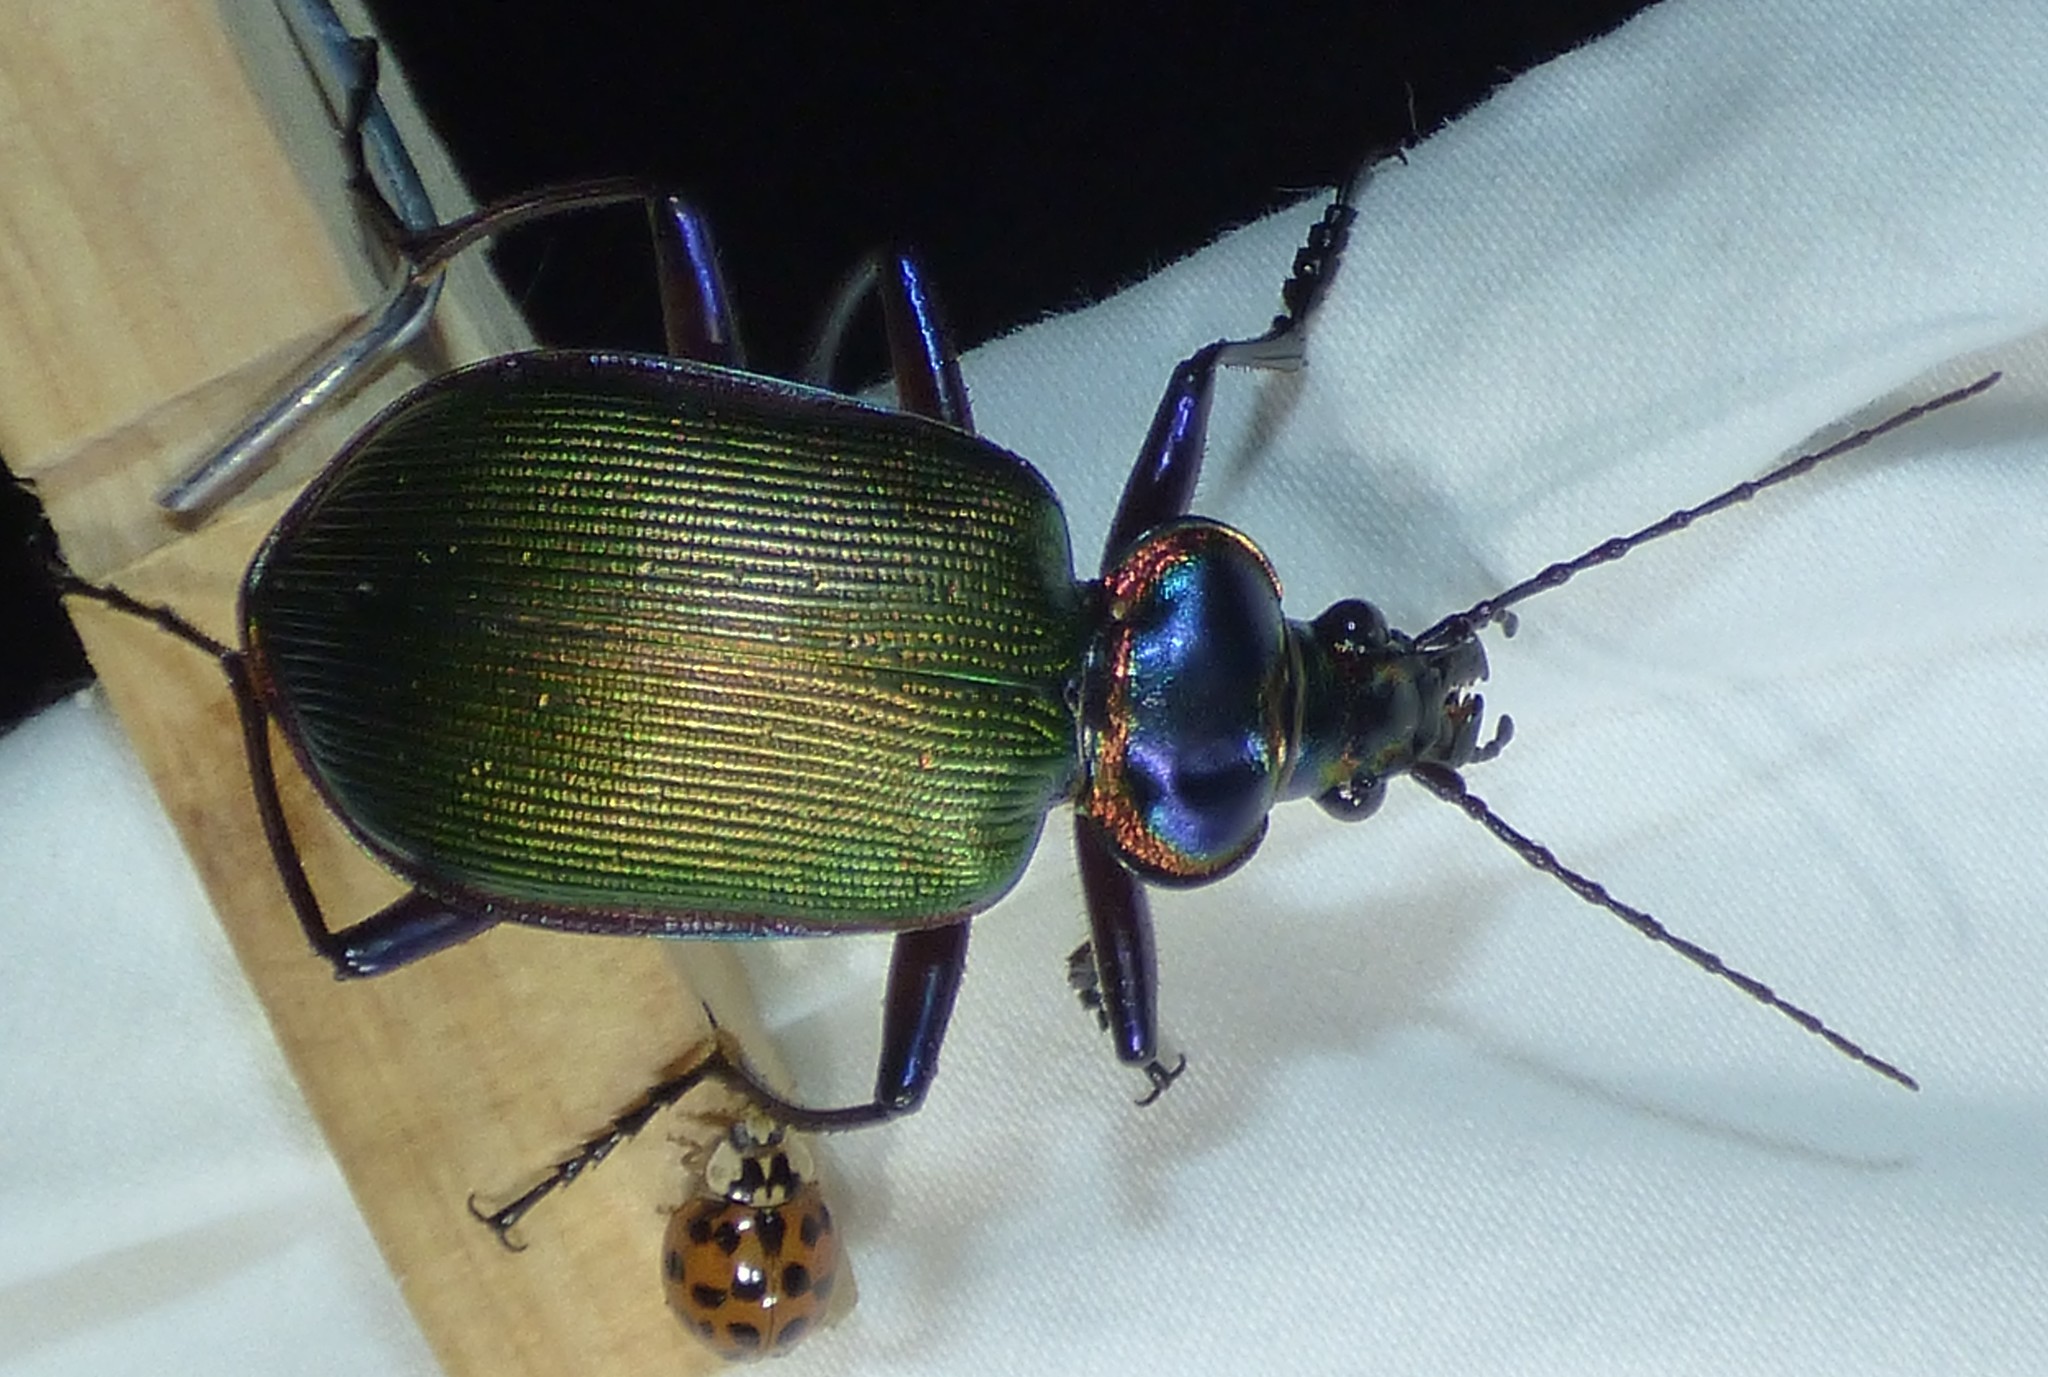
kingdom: Animalia
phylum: Arthropoda
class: Insecta
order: Coleoptera
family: Carabidae
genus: Calosoma
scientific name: Calosoma scrutator
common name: Fiery searcher beetle
